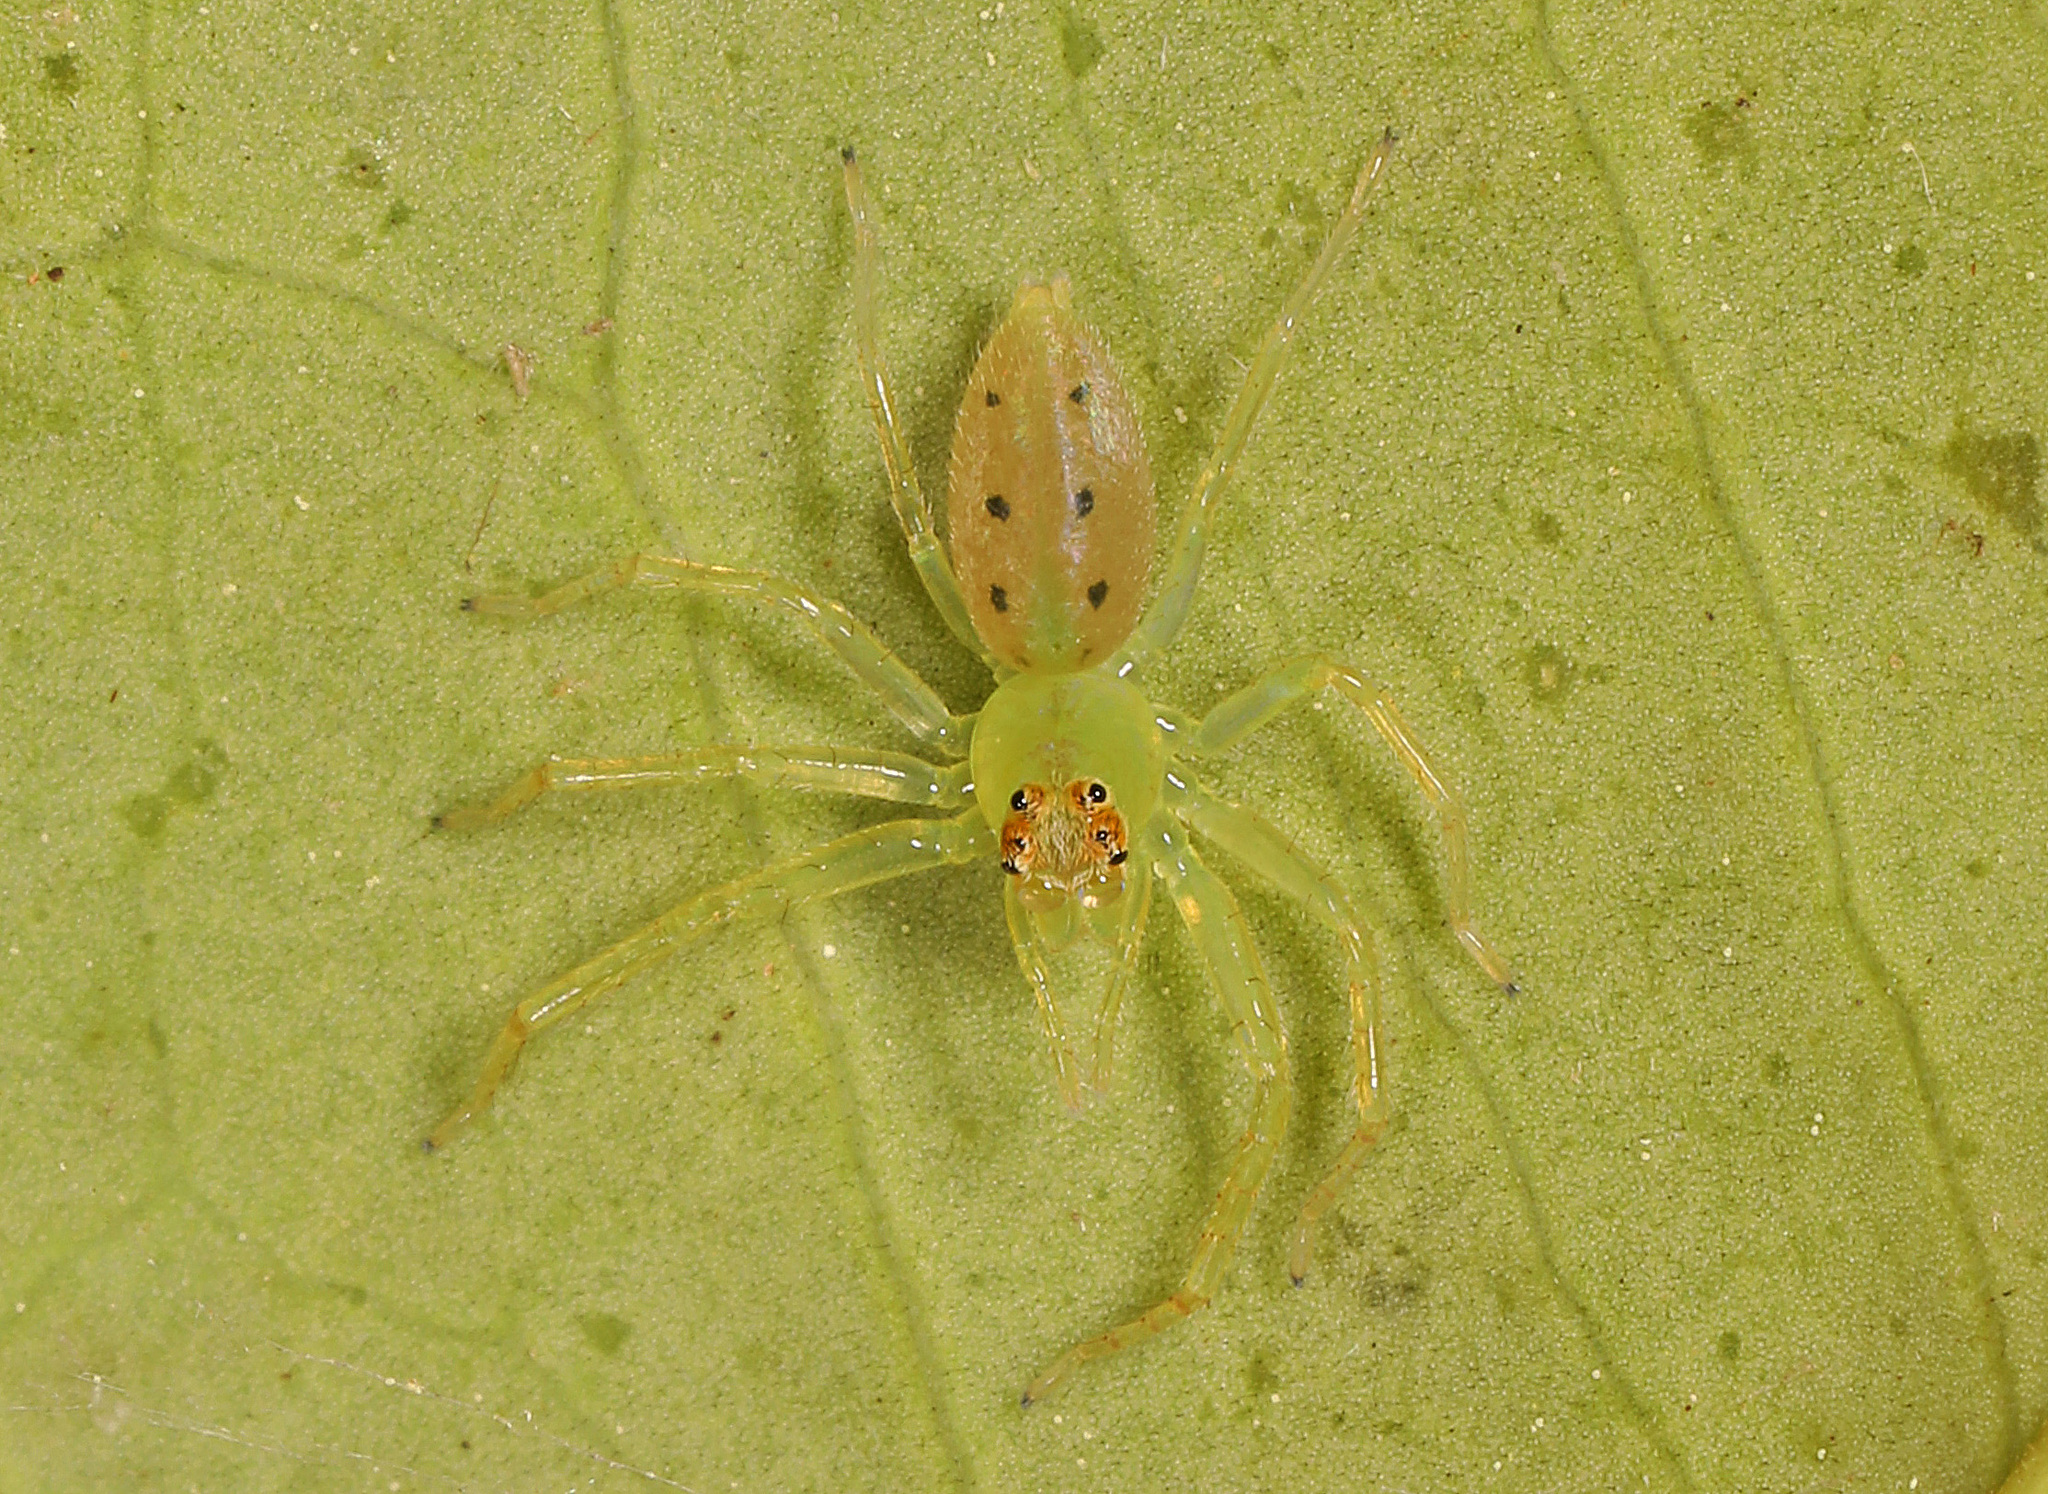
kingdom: Animalia
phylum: Arthropoda
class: Arachnida
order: Araneae
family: Salticidae
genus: Lyssomanes
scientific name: Lyssomanes viridis
